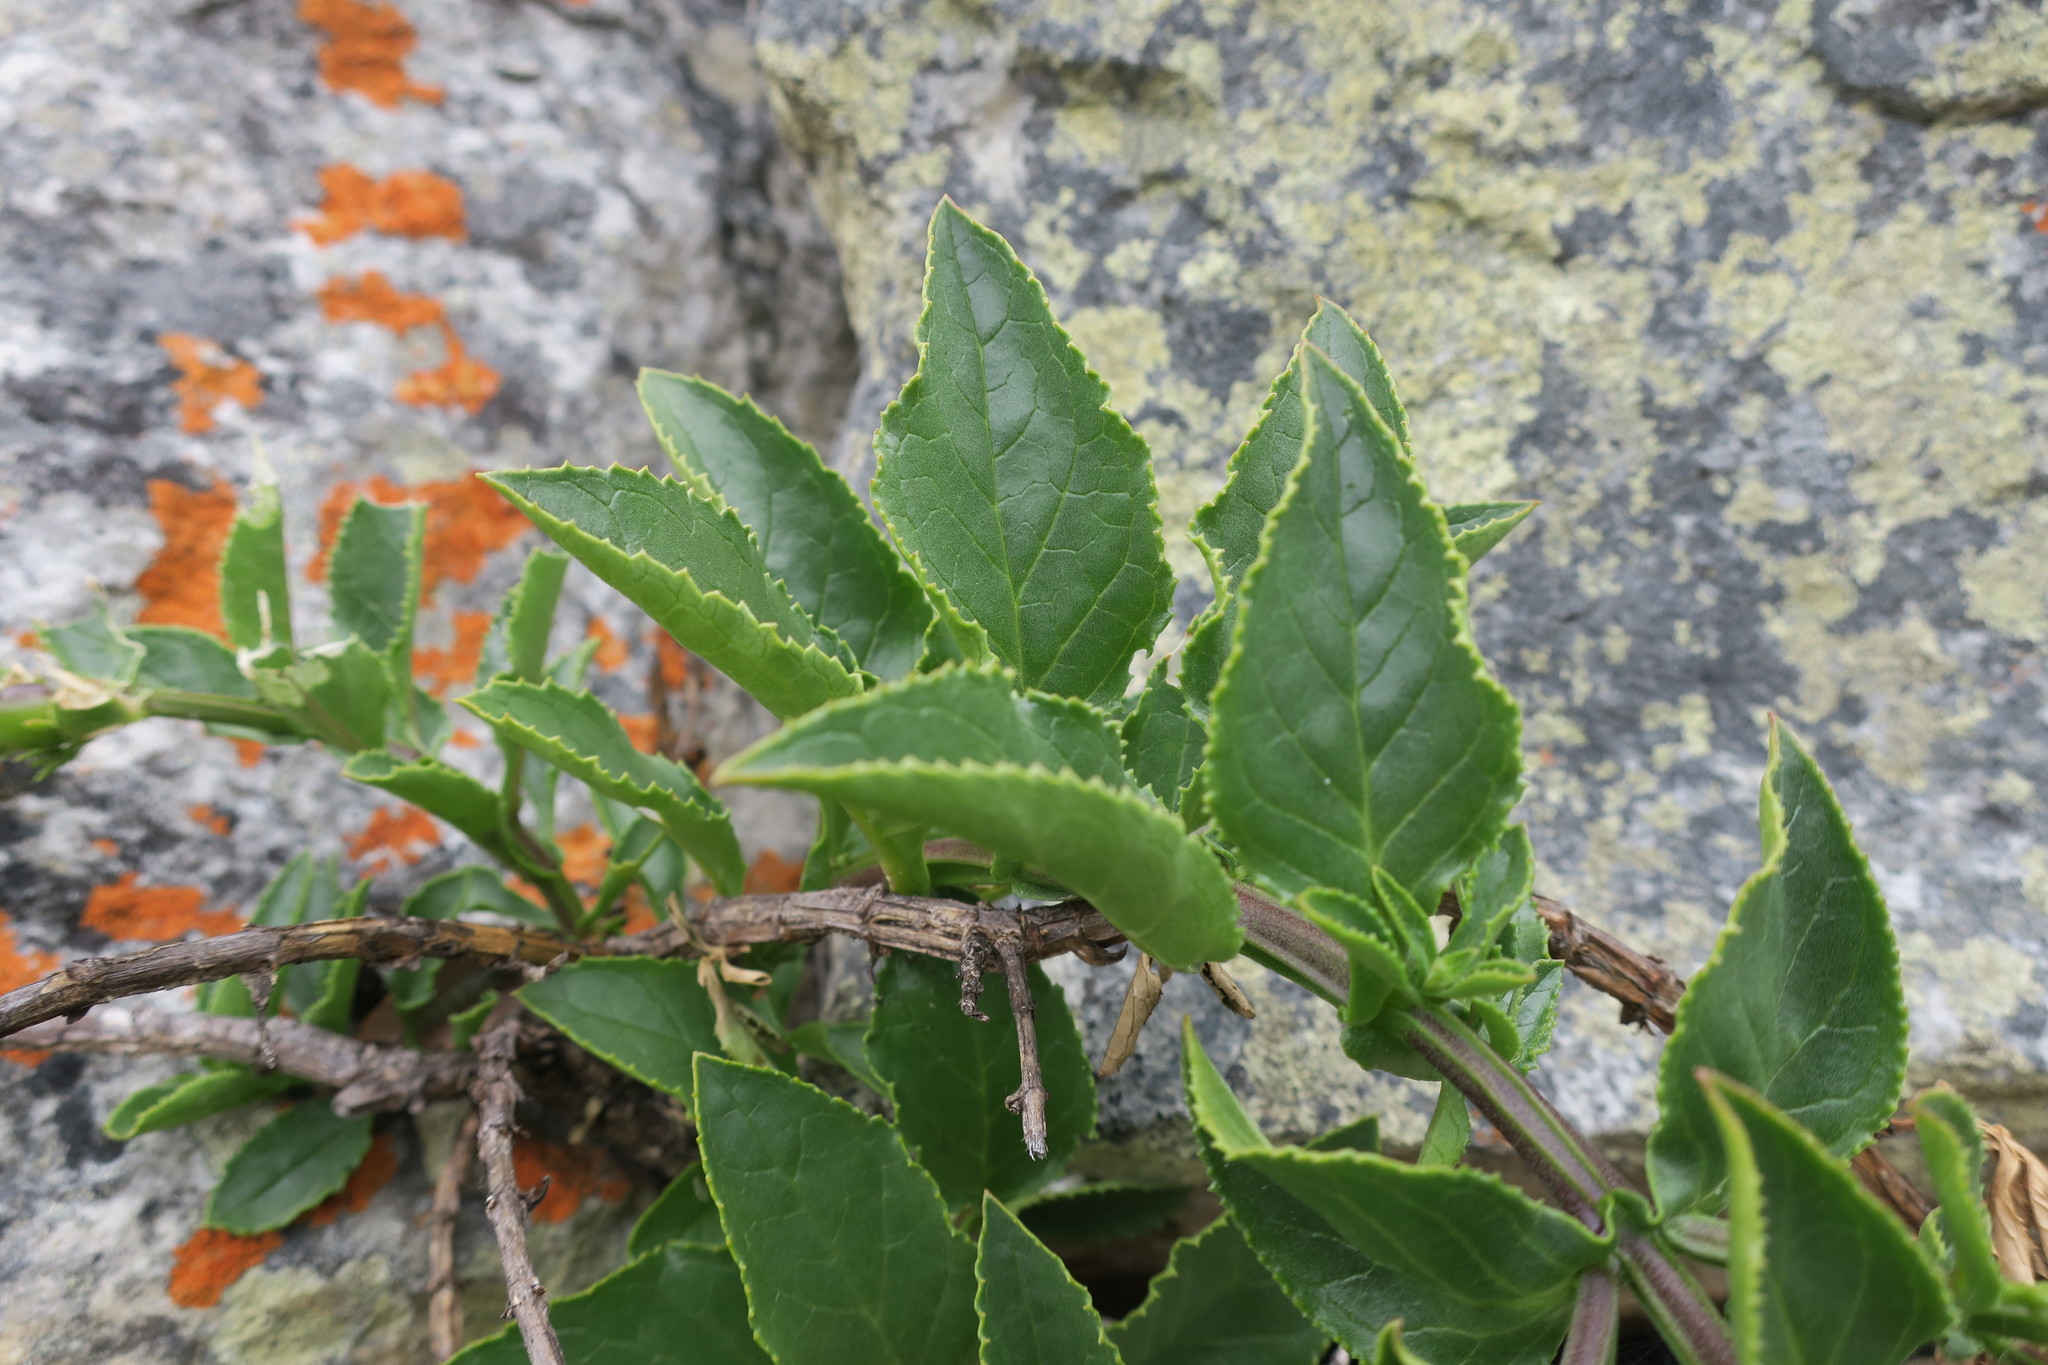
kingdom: Plantae
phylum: Tracheophyta
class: Magnoliopsida
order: Lamiales
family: Scrophulariaceae
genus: Teedia
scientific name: Teedia lucida
